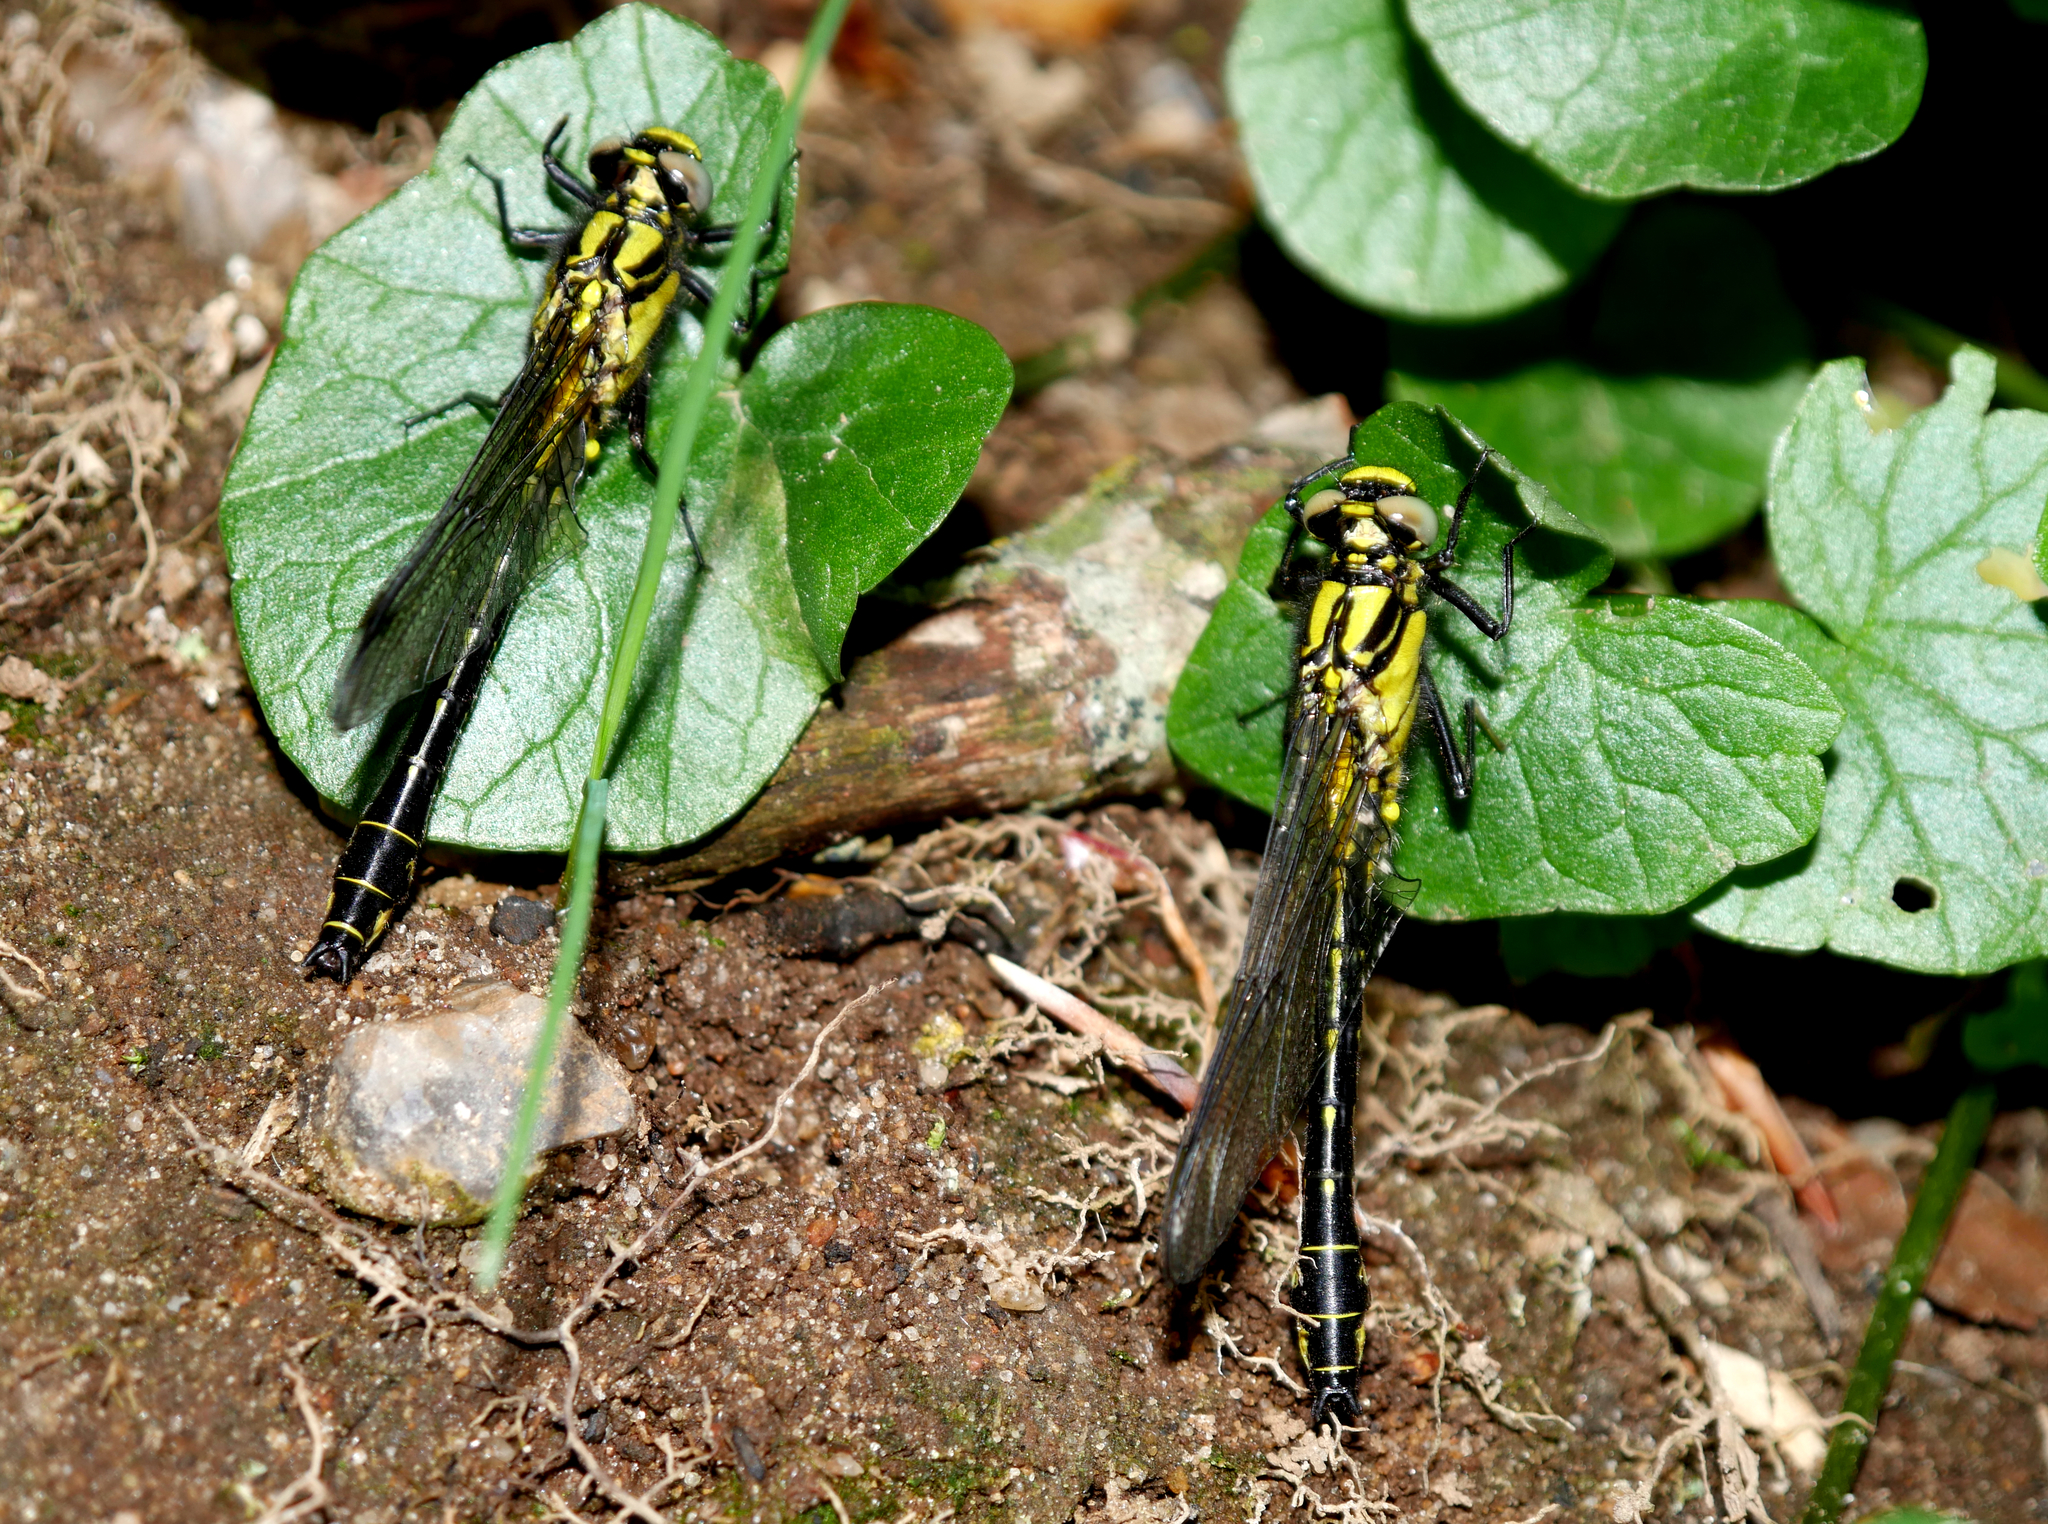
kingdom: Animalia
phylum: Arthropoda
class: Insecta
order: Odonata
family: Gomphidae
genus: Gomphus
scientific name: Gomphus vulgatissimus
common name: Club-tailed dragonfly
